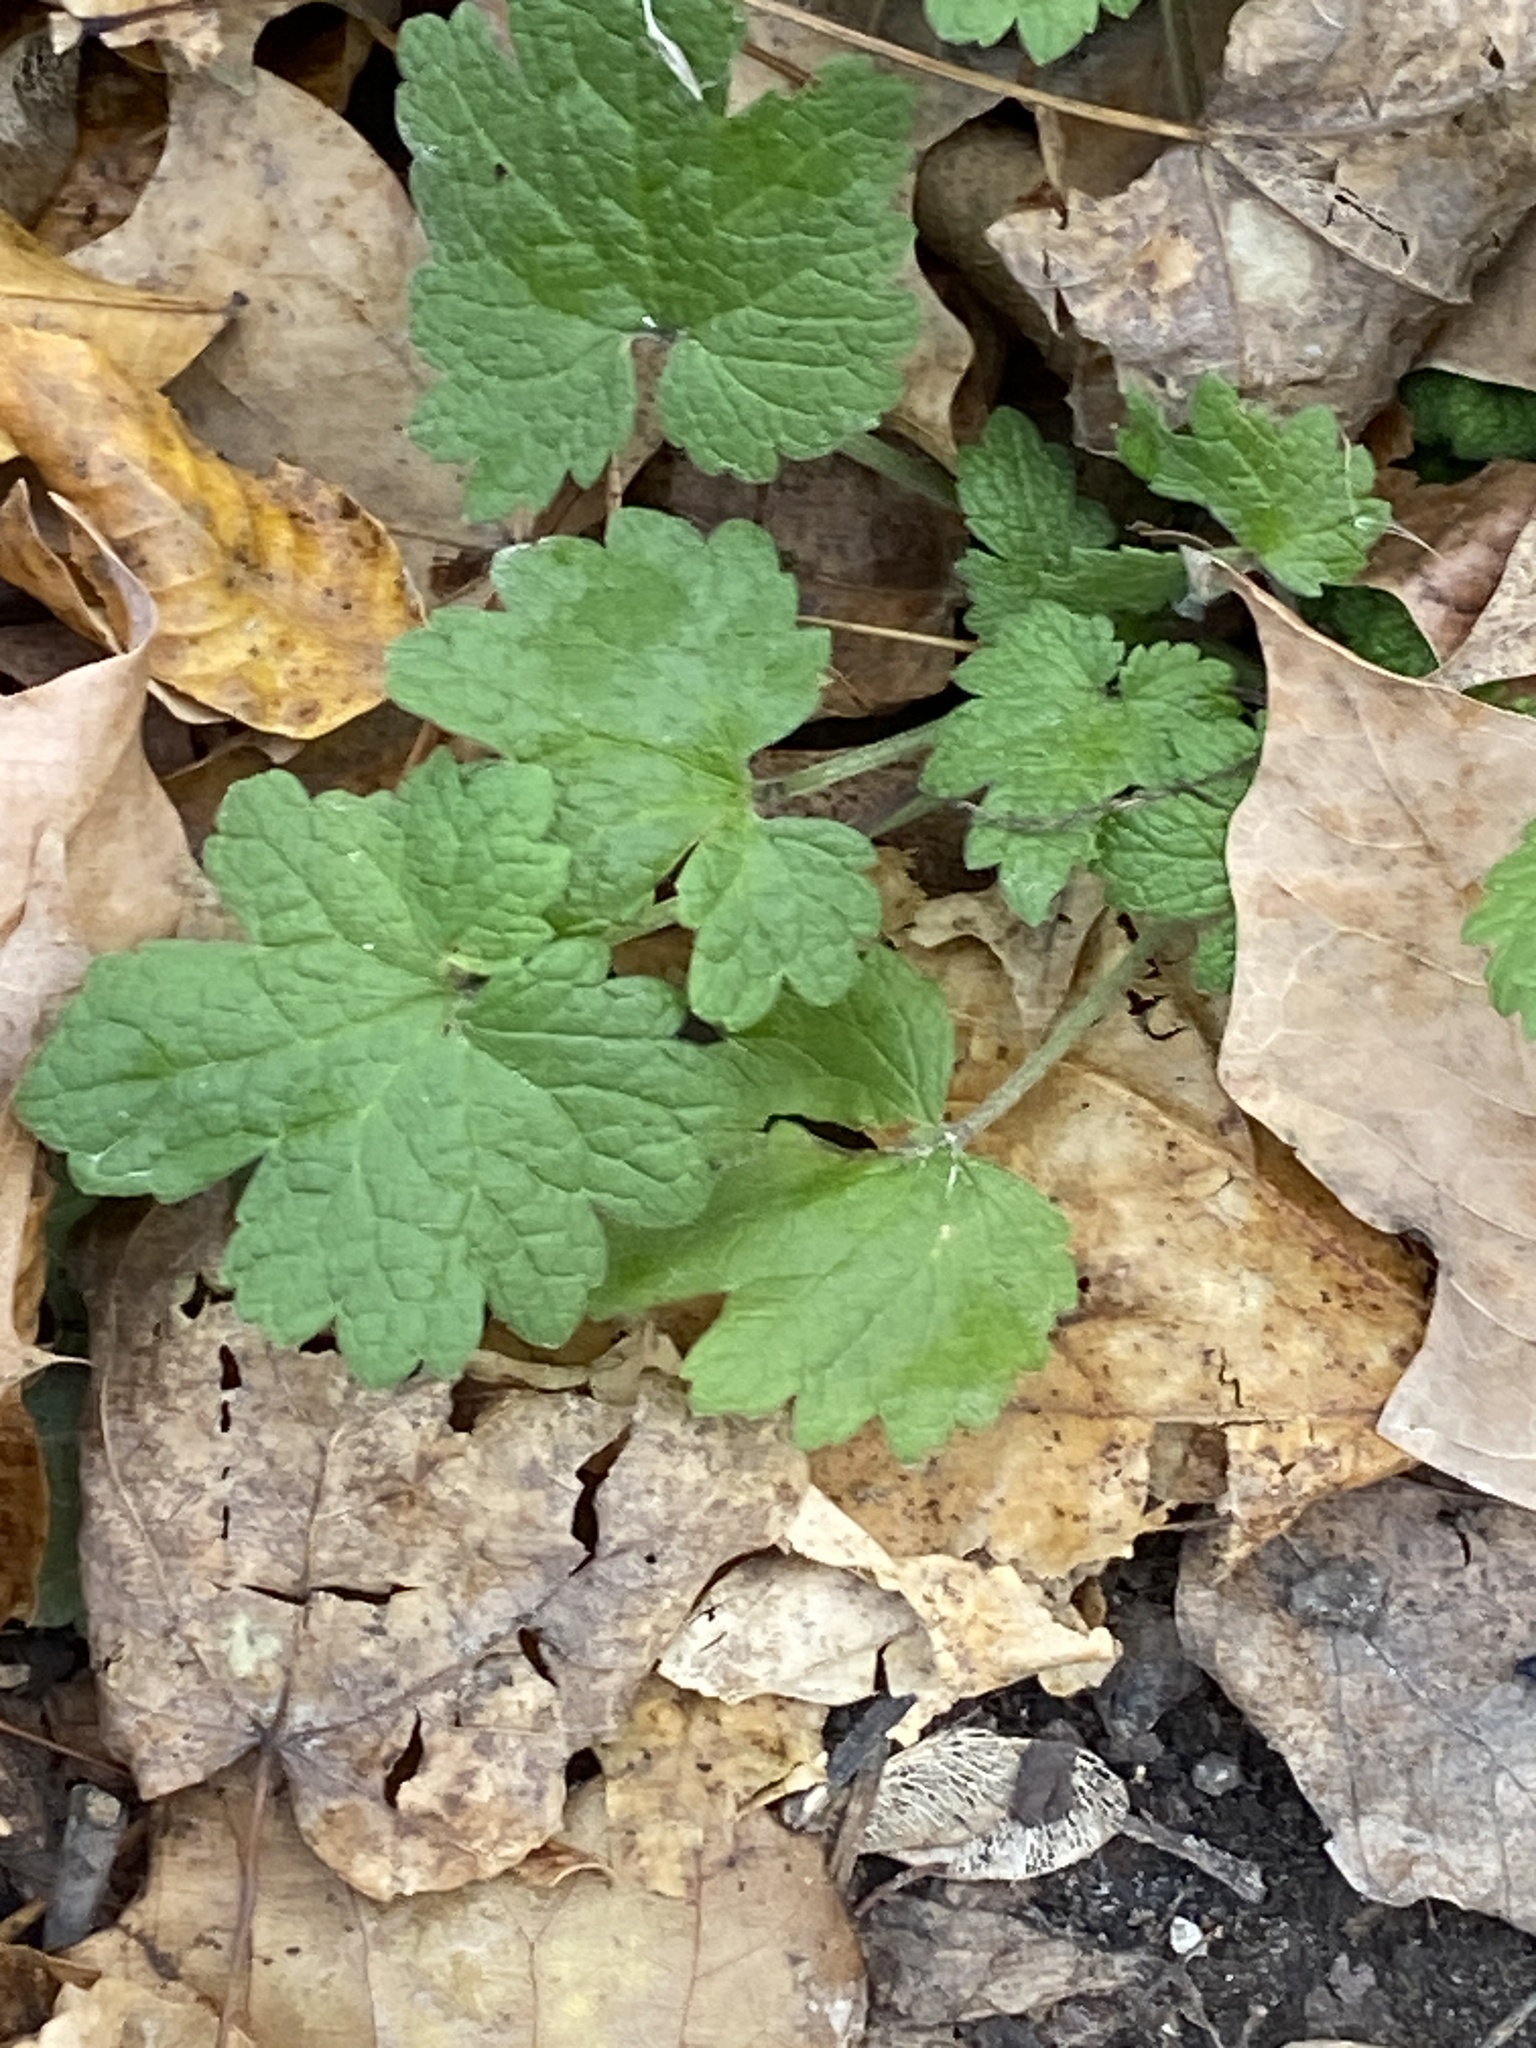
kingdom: Plantae
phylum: Tracheophyta
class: Magnoliopsida
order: Lamiales
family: Lamiaceae
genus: Leonurus
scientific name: Leonurus cardiaca
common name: Motherwort
